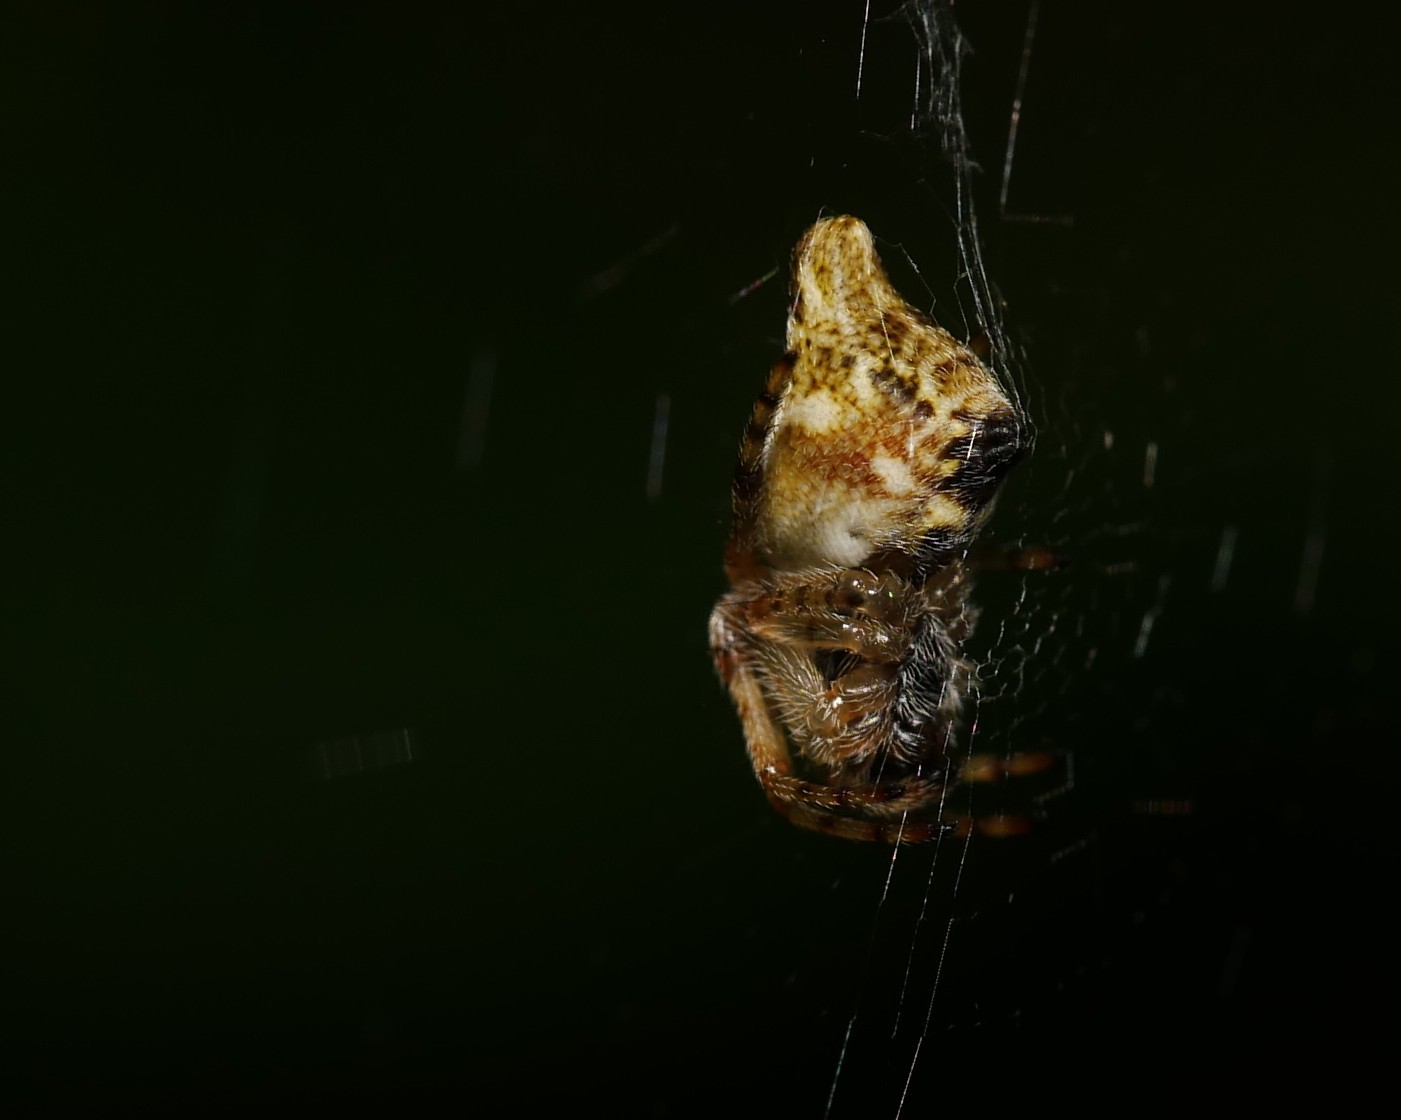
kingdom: Animalia
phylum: Arthropoda
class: Arachnida
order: Araneae
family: Araneidae
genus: Cyclosa
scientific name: Cyclosa conica
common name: Conical trashline orbweaver
